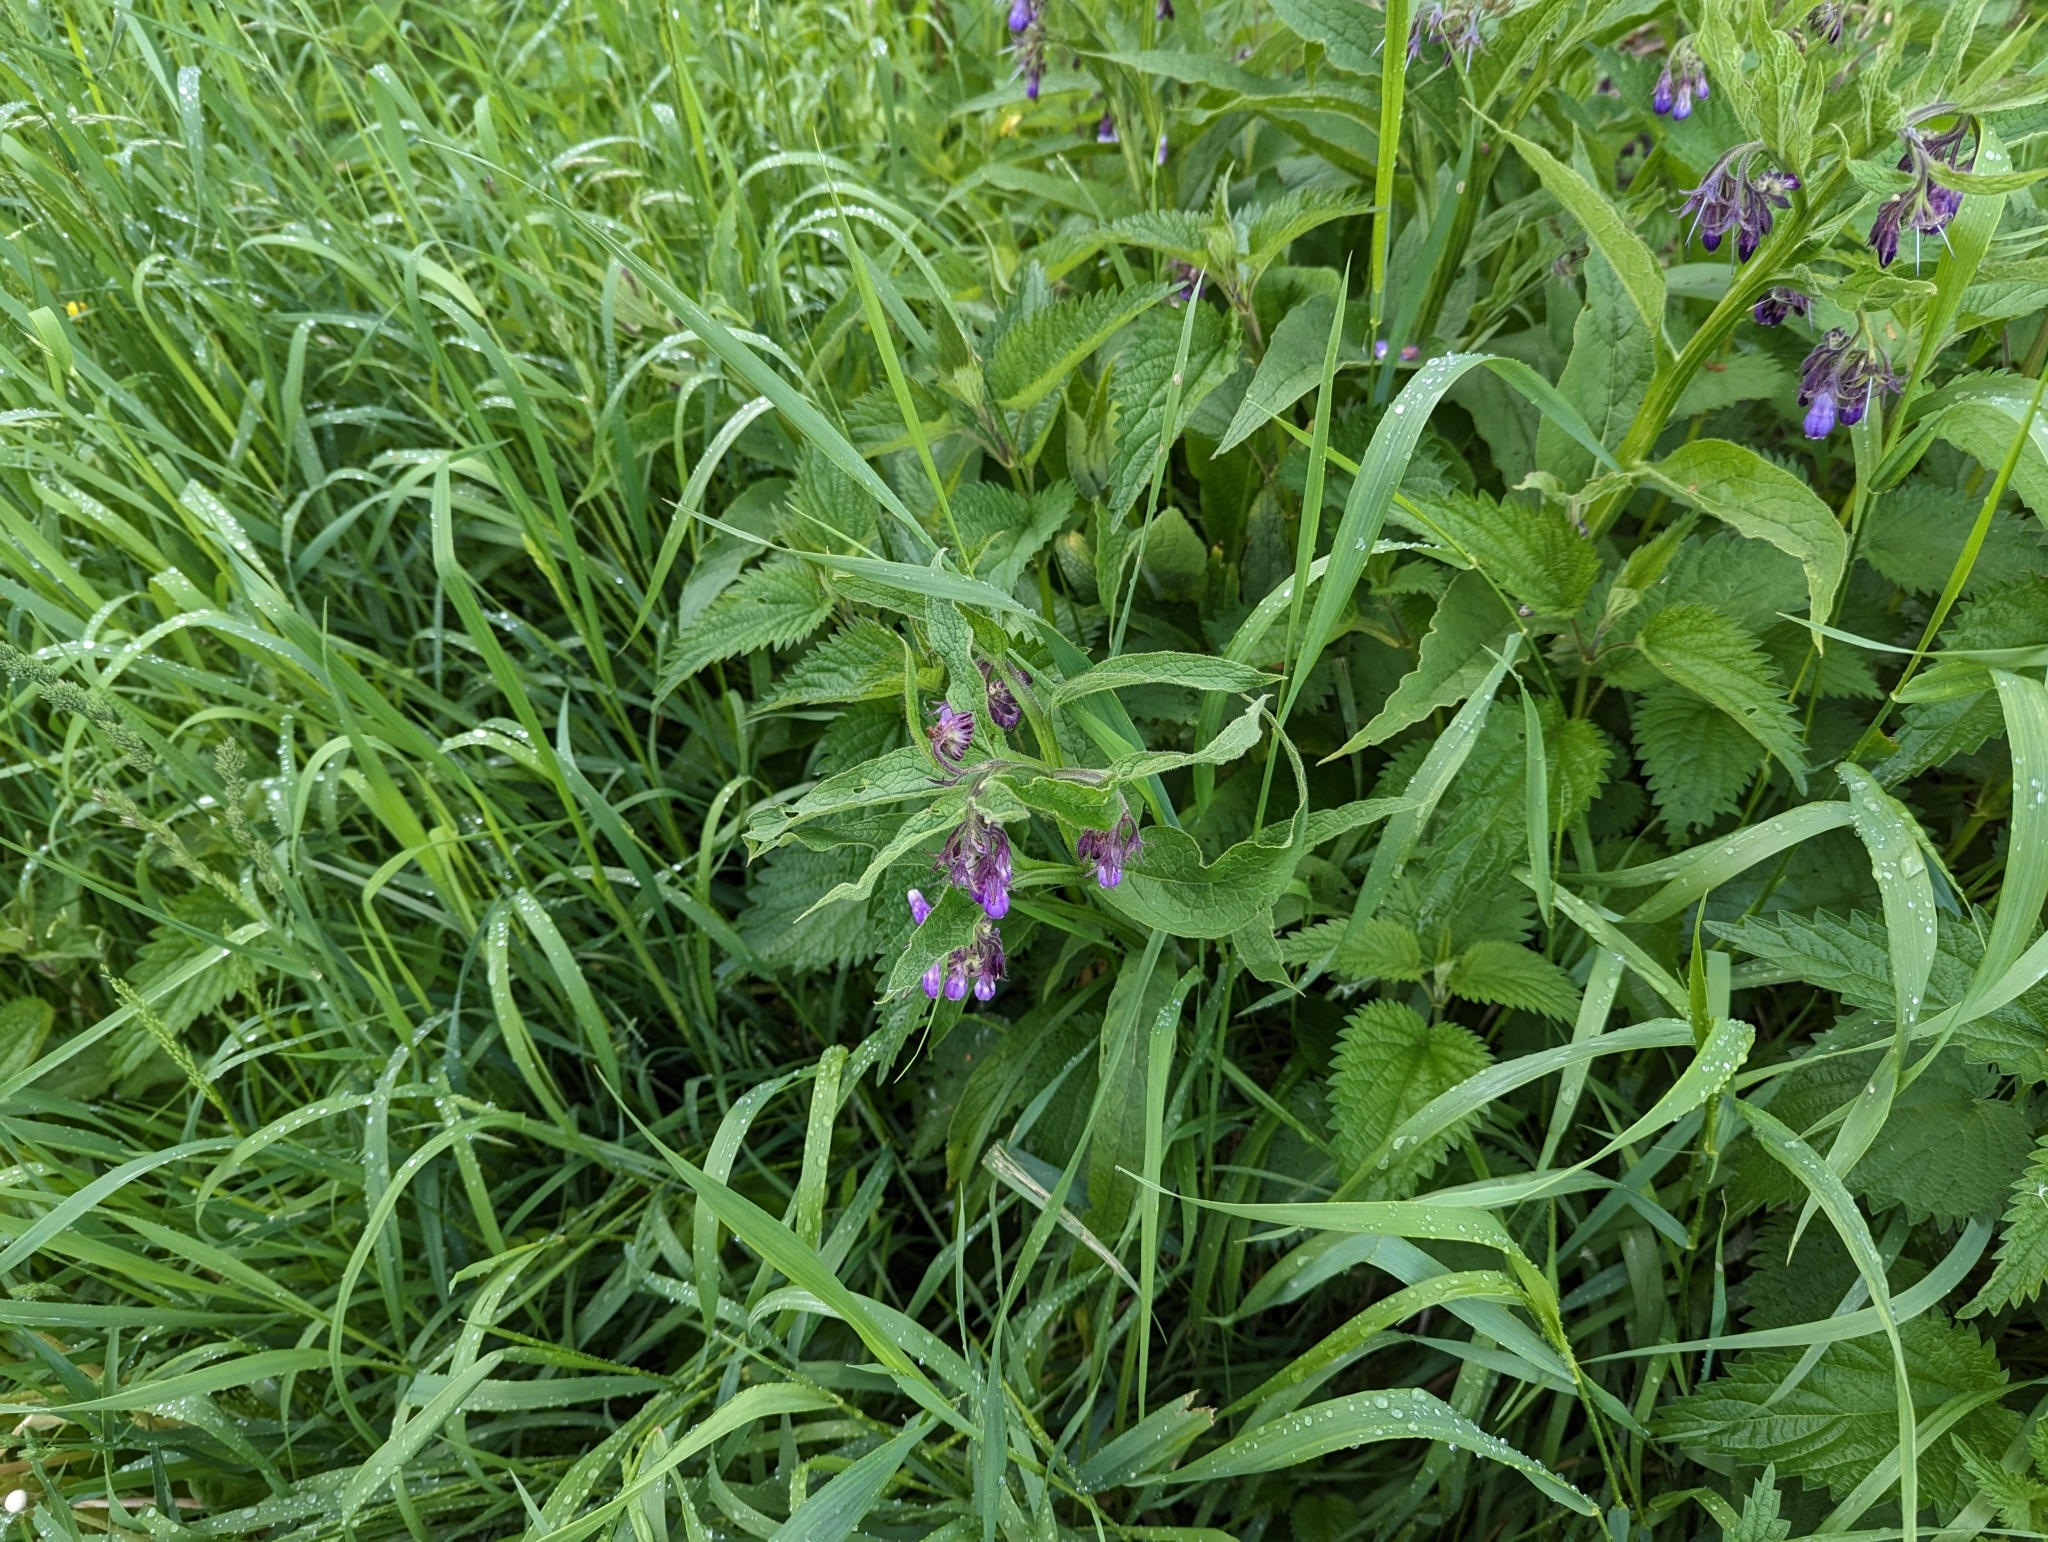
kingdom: Plantae
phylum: Tracheophyta
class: Magnoliopsida
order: Boraginales
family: Boraginaceae
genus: Symphytum
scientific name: Symphytum officinale
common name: Common comfrey
